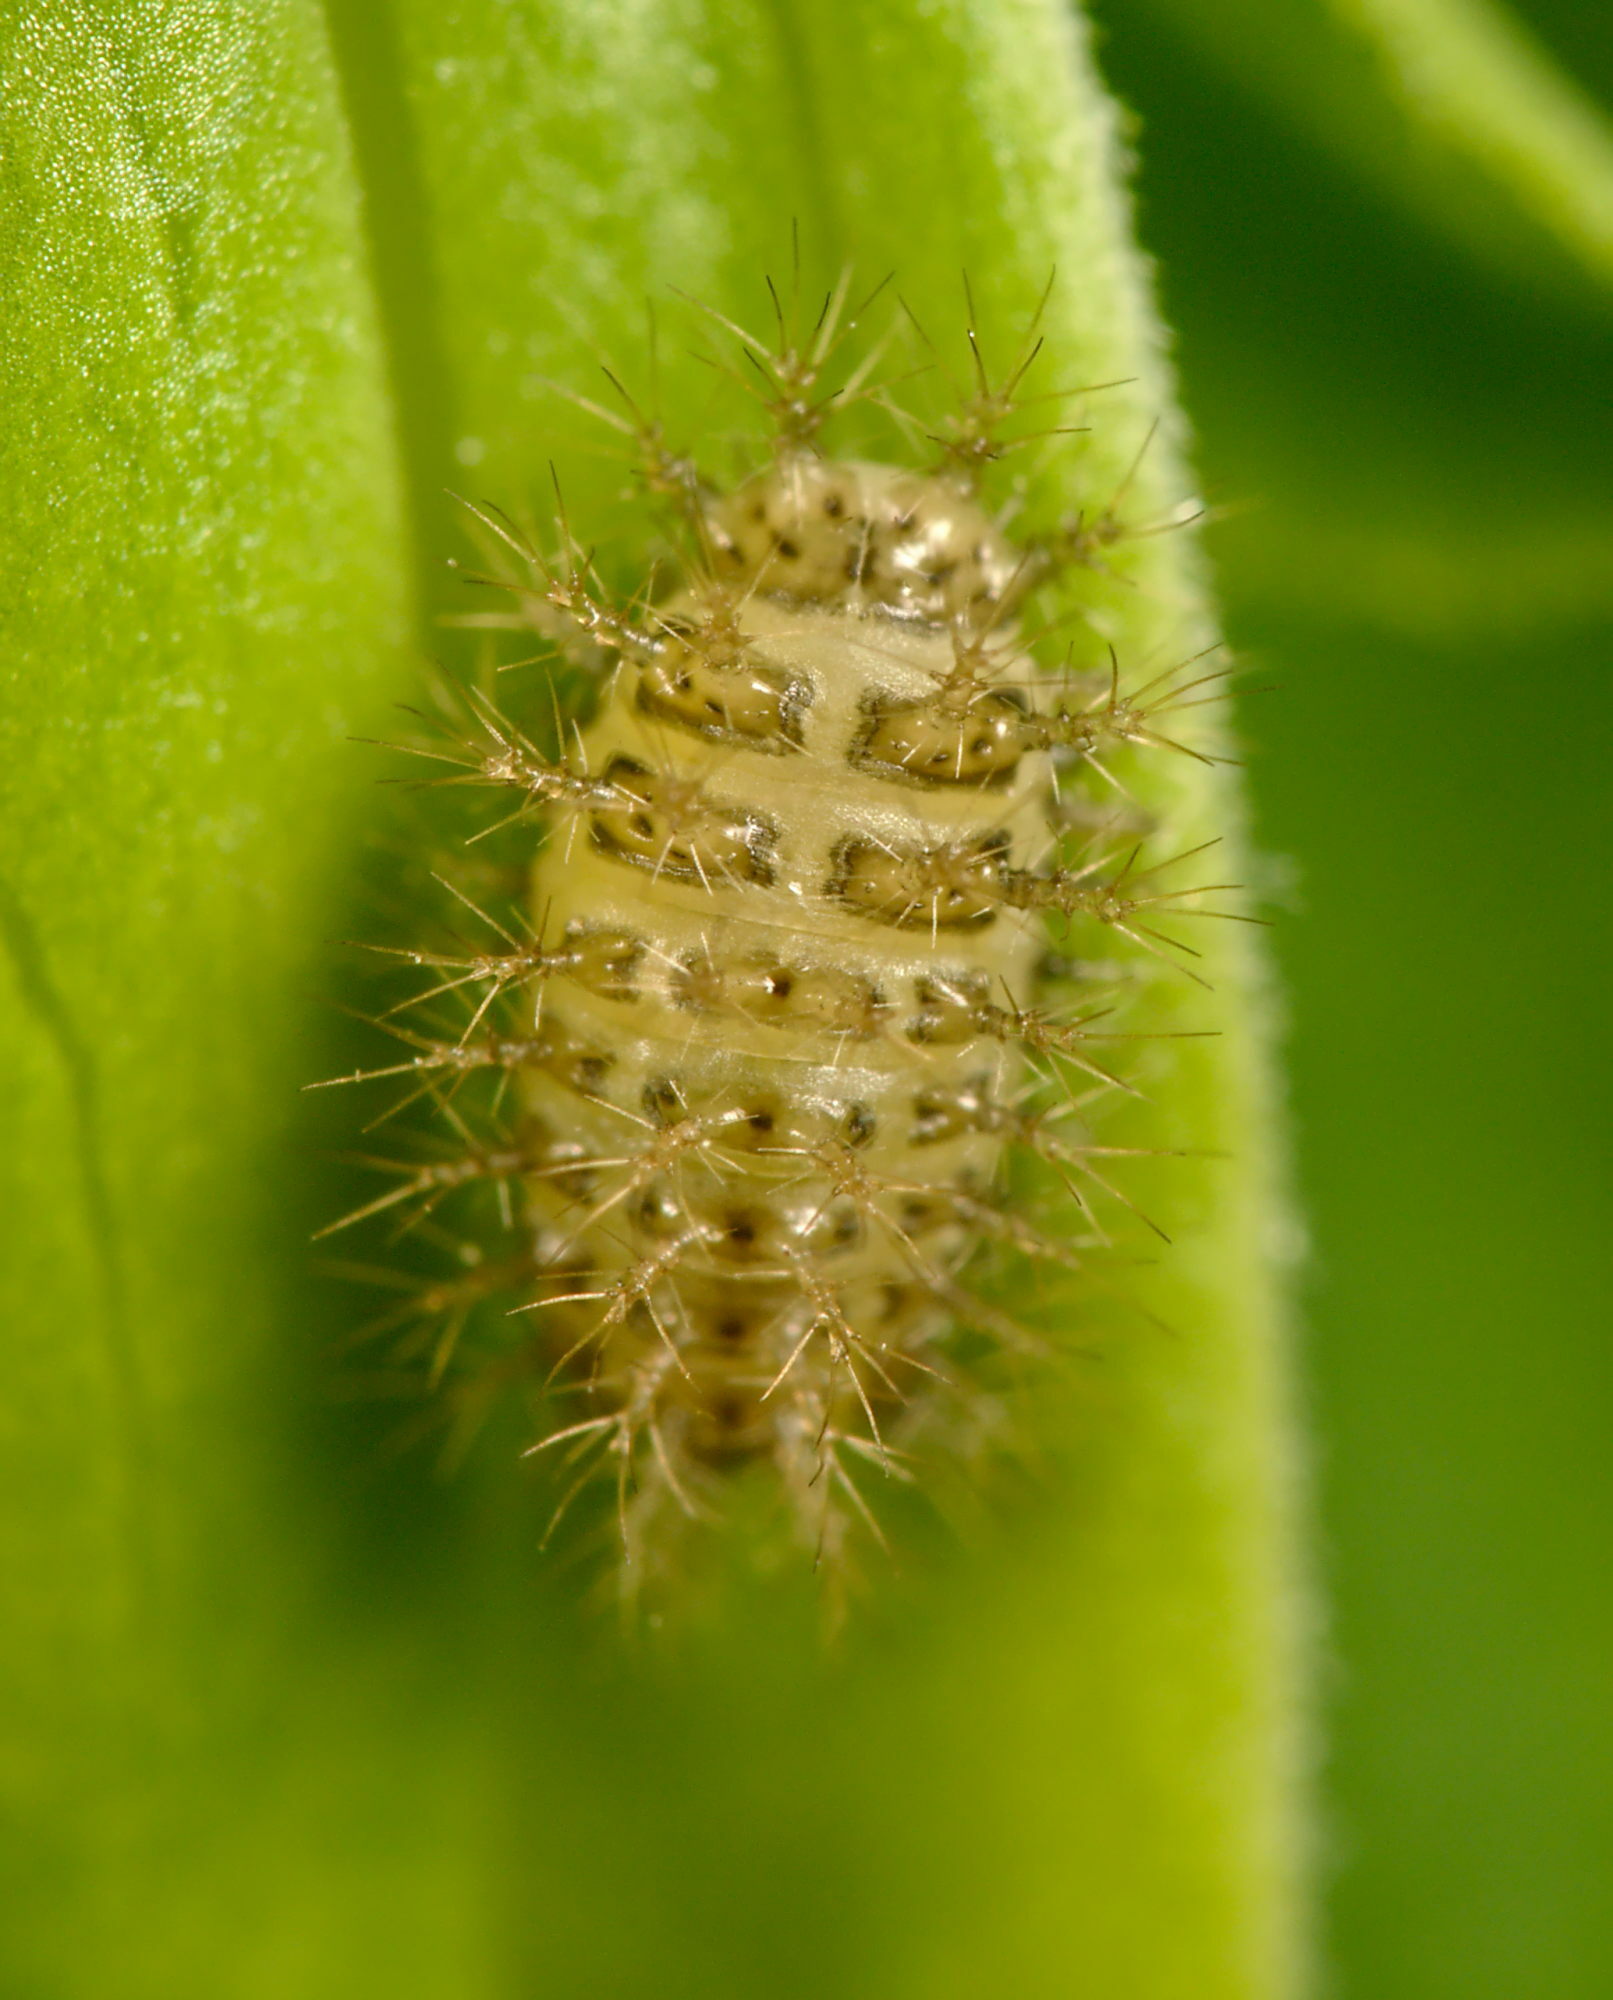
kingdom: Animalia
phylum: Arthropoda
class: Insecta
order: Coleoptera
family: Coccinellidae
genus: Subcoccinella
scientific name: Subcoccinella vigintiquatuorpunctata
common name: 24-spot ladybird
